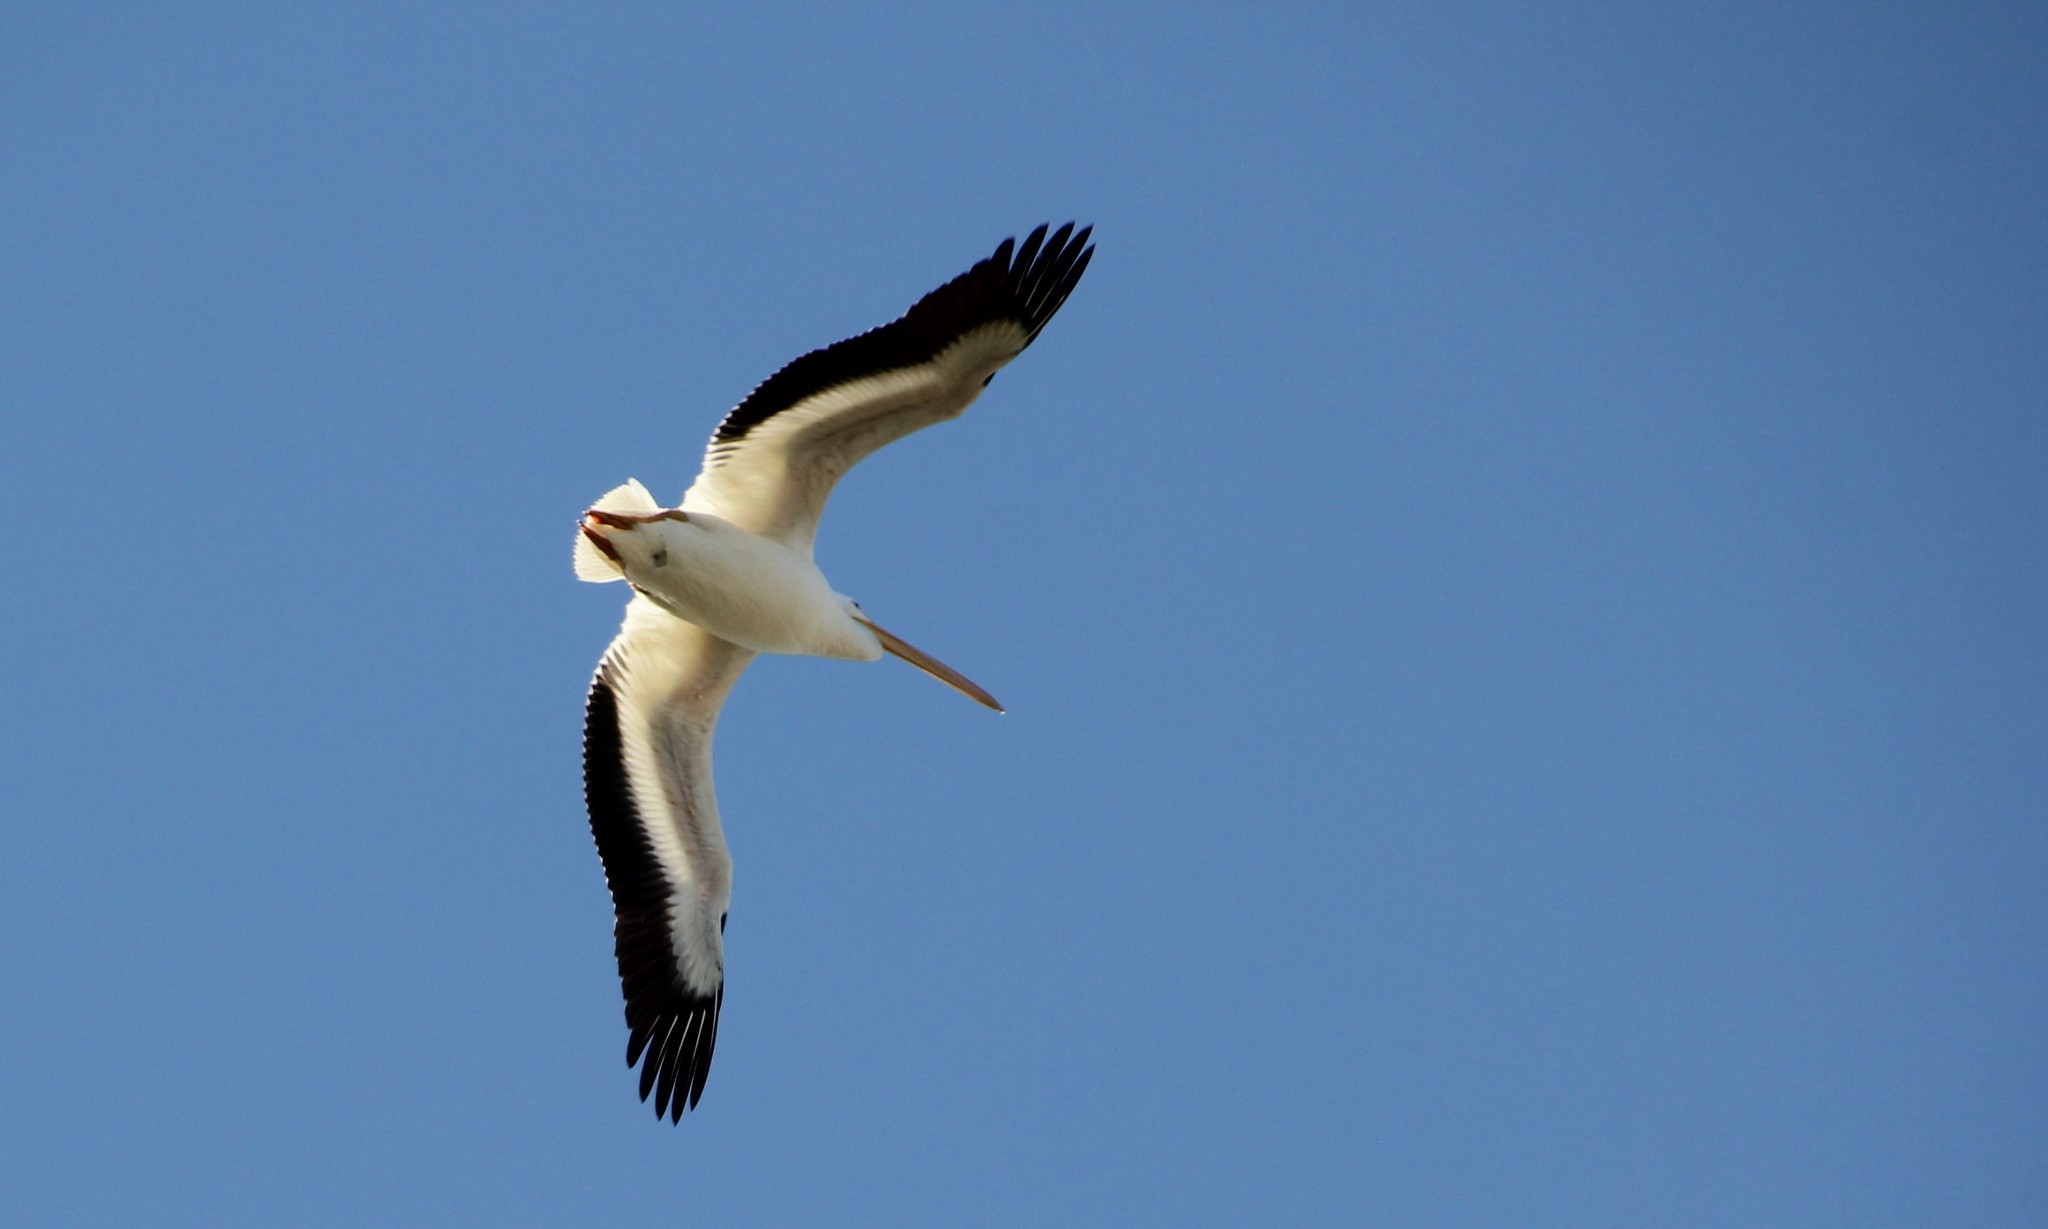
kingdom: Animalia
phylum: Chordata
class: Aves
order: Pelecaniformes
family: Pelecanidae
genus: Pelecanus
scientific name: Pelecanus erythrorhynchos
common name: American white pelican
